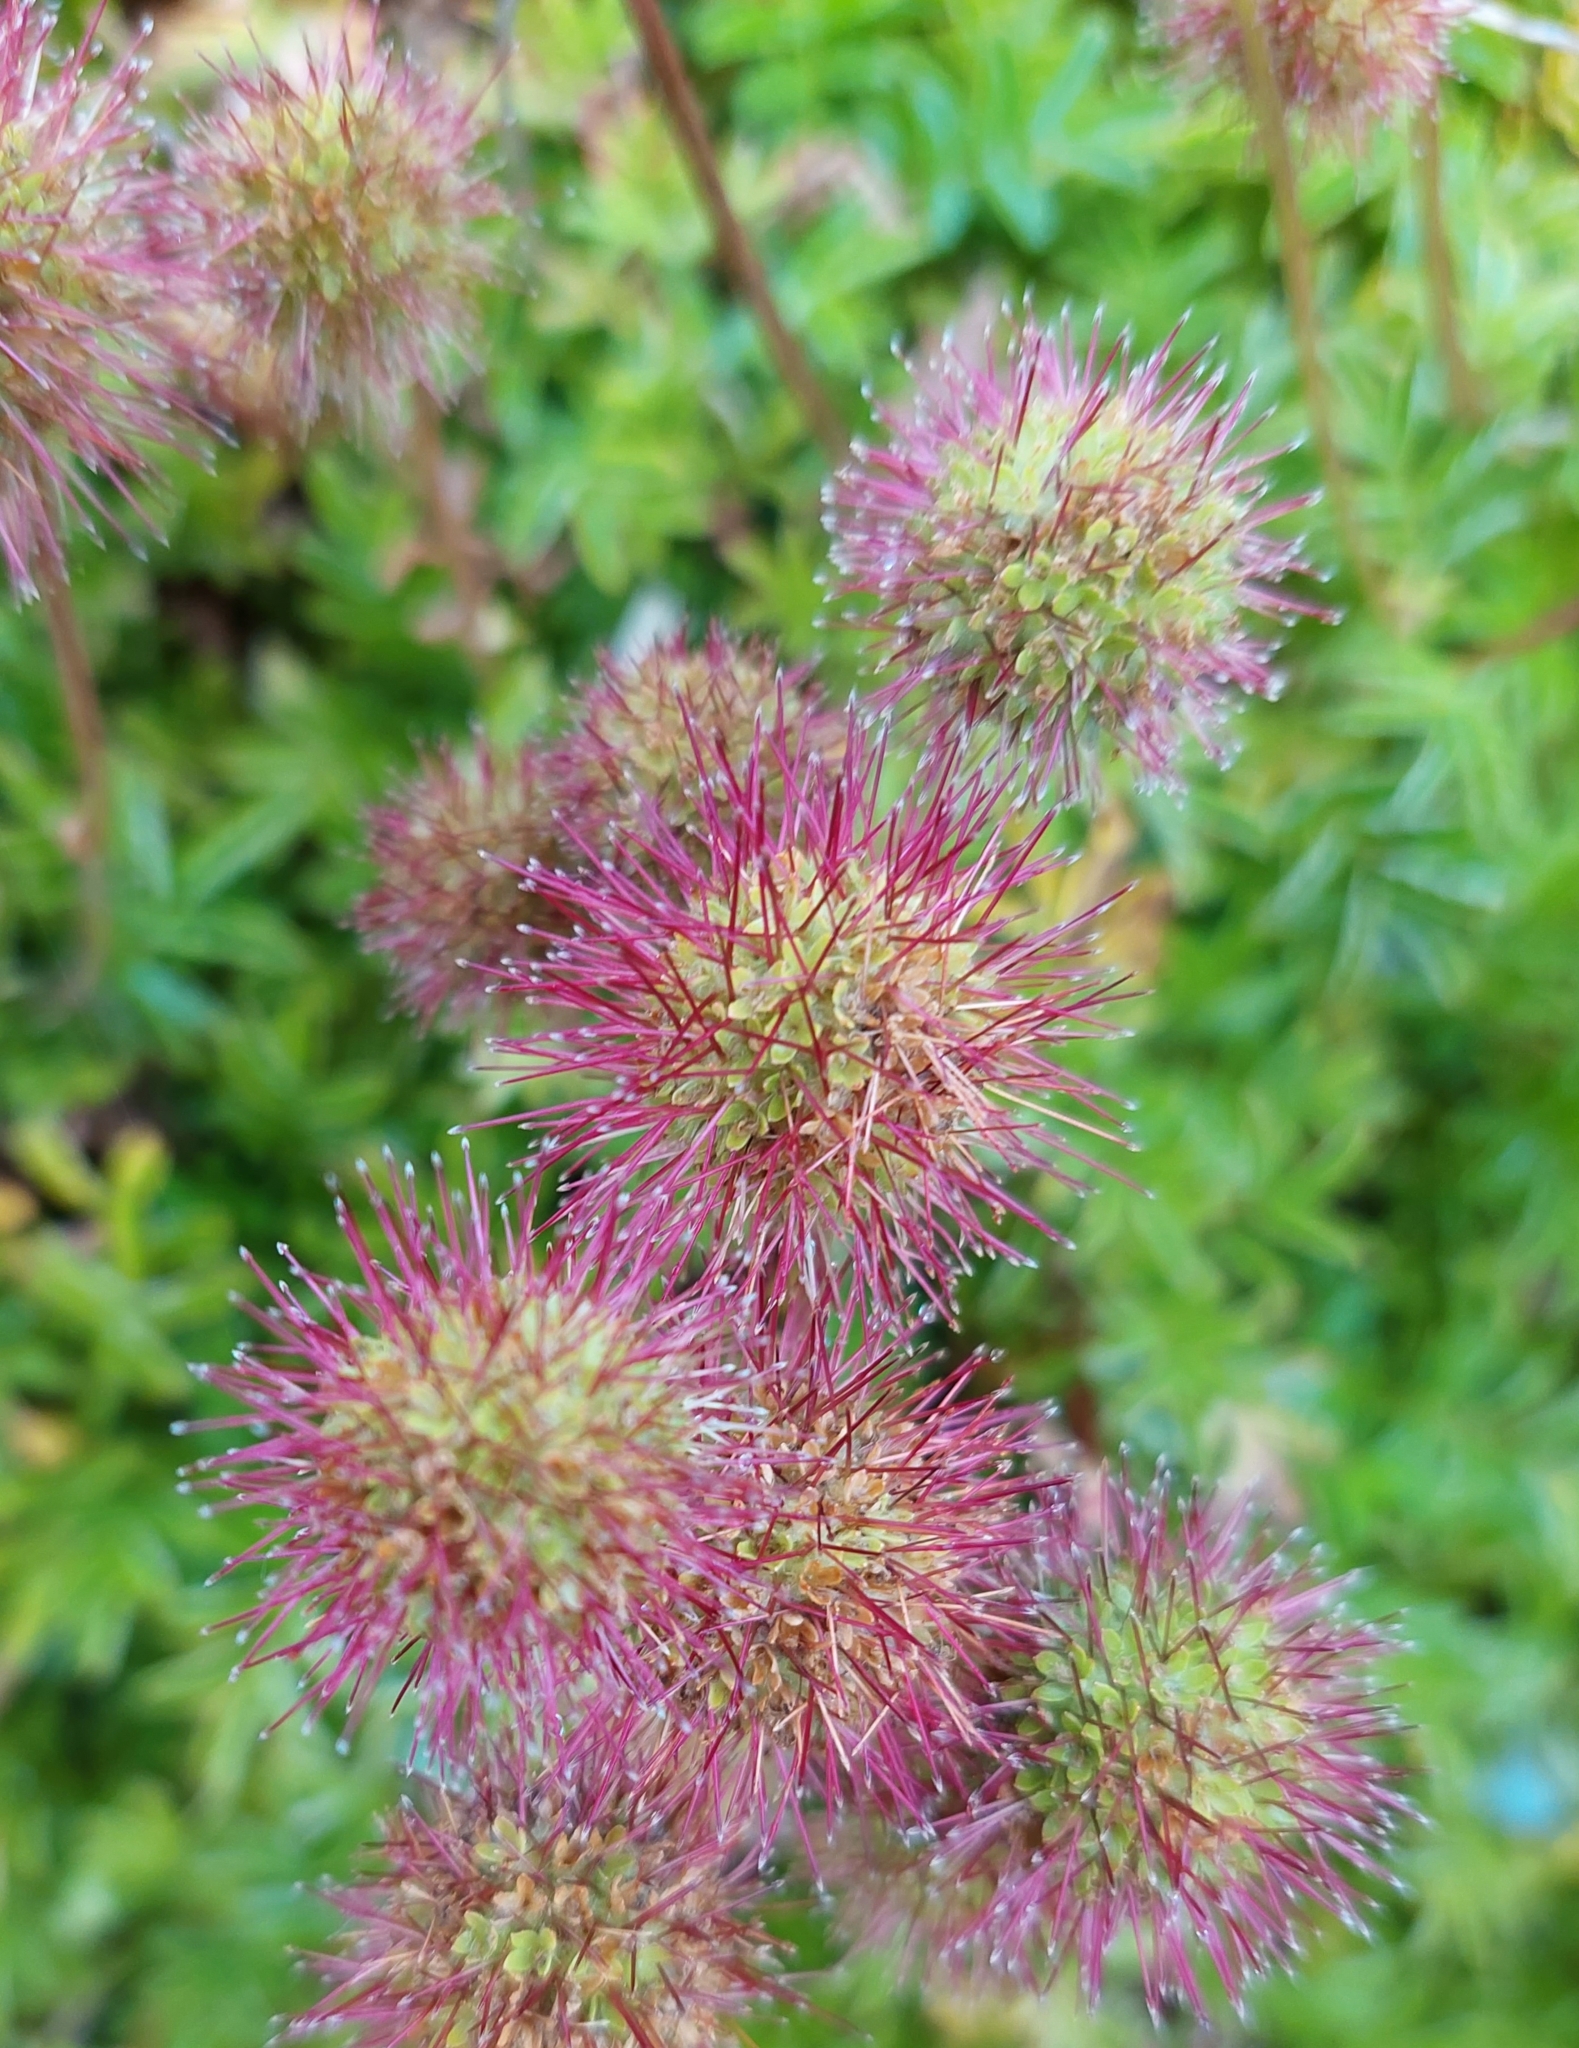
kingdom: Plantae
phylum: Tracheophyta
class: Magnoliopsida
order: Rosales
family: Rosaceae
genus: Acaena
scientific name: Acaena novae-zelandiae
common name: Pirri-pirri-bur
